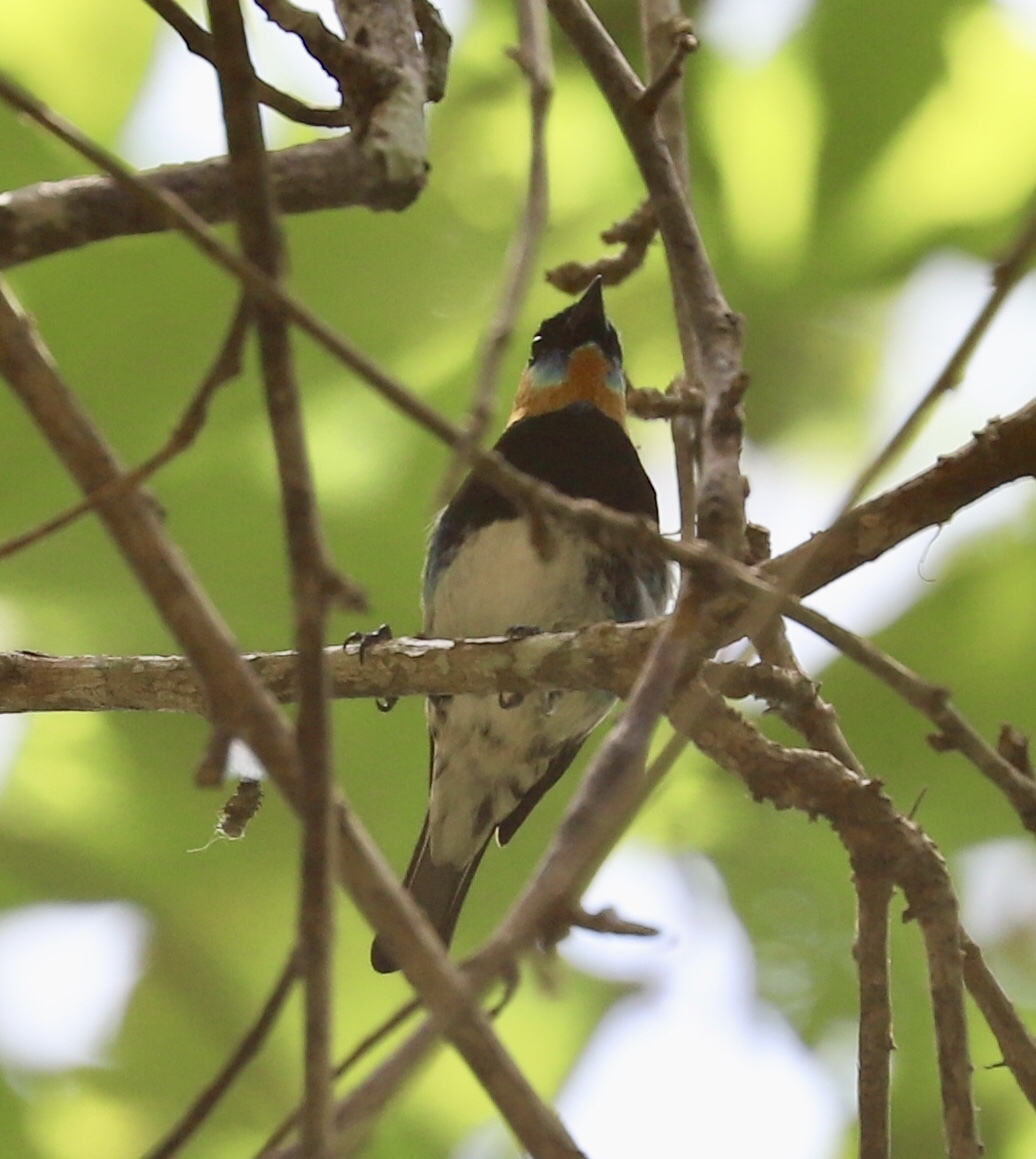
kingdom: Animalia
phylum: Chordata
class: Aves
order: Passeriformes
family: Thraupidae
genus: Stilpnia
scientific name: Stilpnia larvata
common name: Golden-hooded tanager
